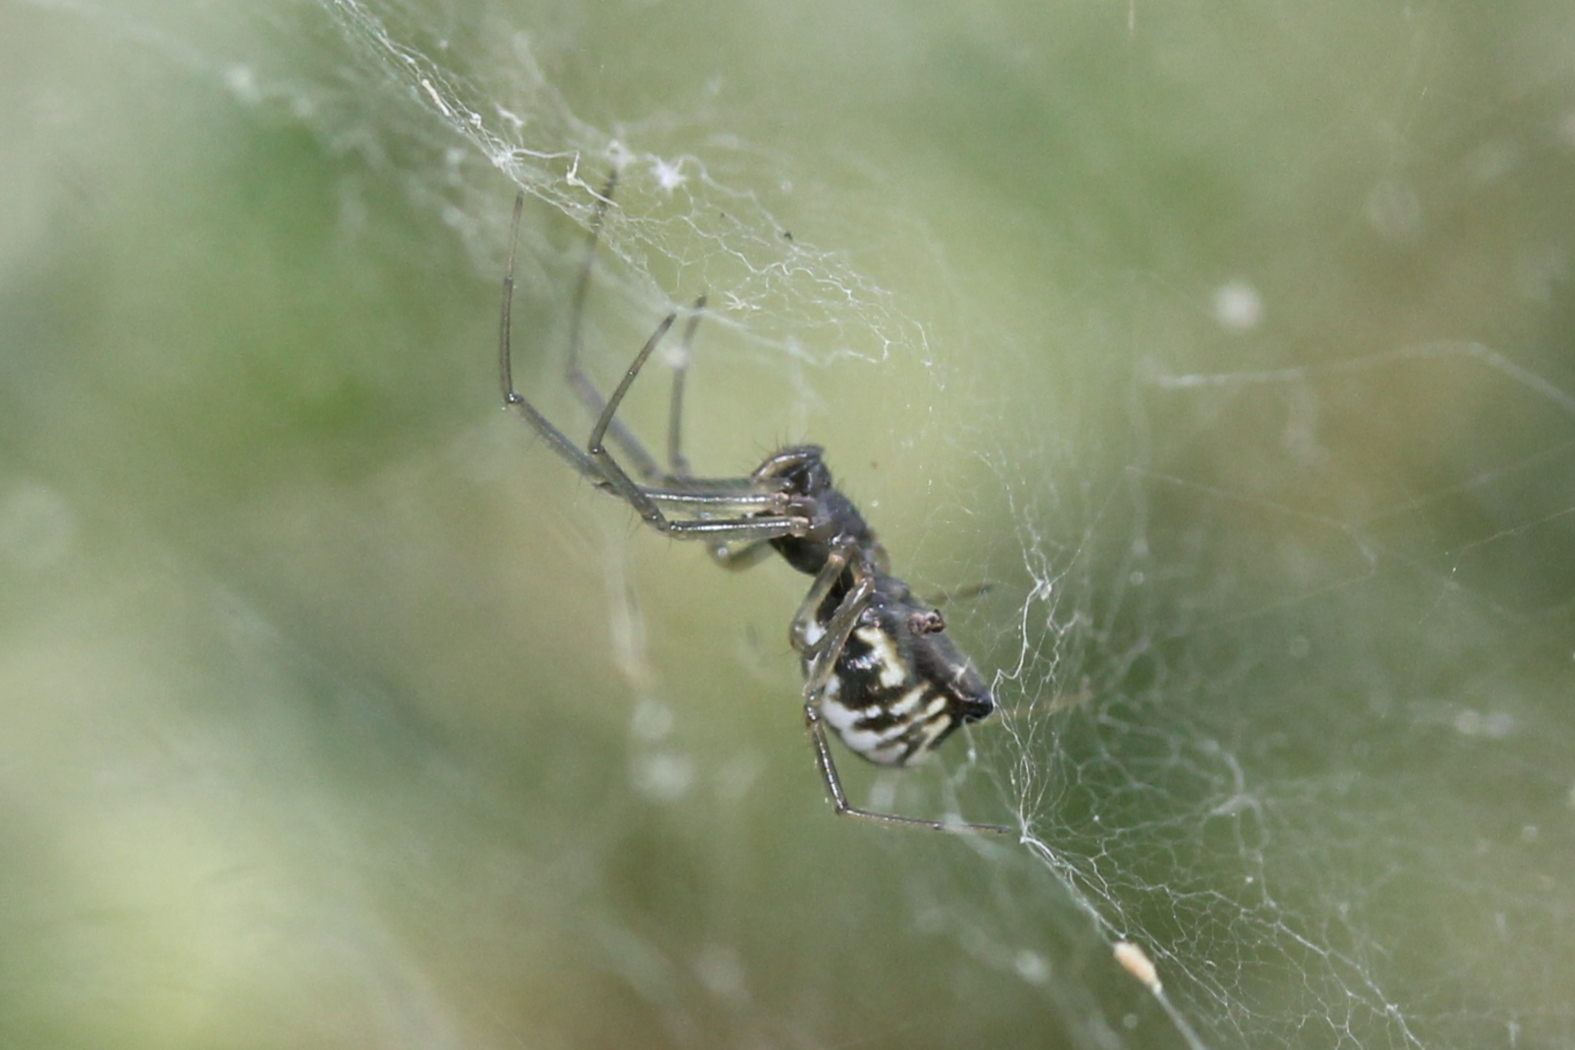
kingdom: Animalia
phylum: Arthropoda
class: Arachnida
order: Araneae
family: Linyphiidae
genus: Frontinella
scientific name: Frontinella pyramitela
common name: Bowl-and-doily spider
